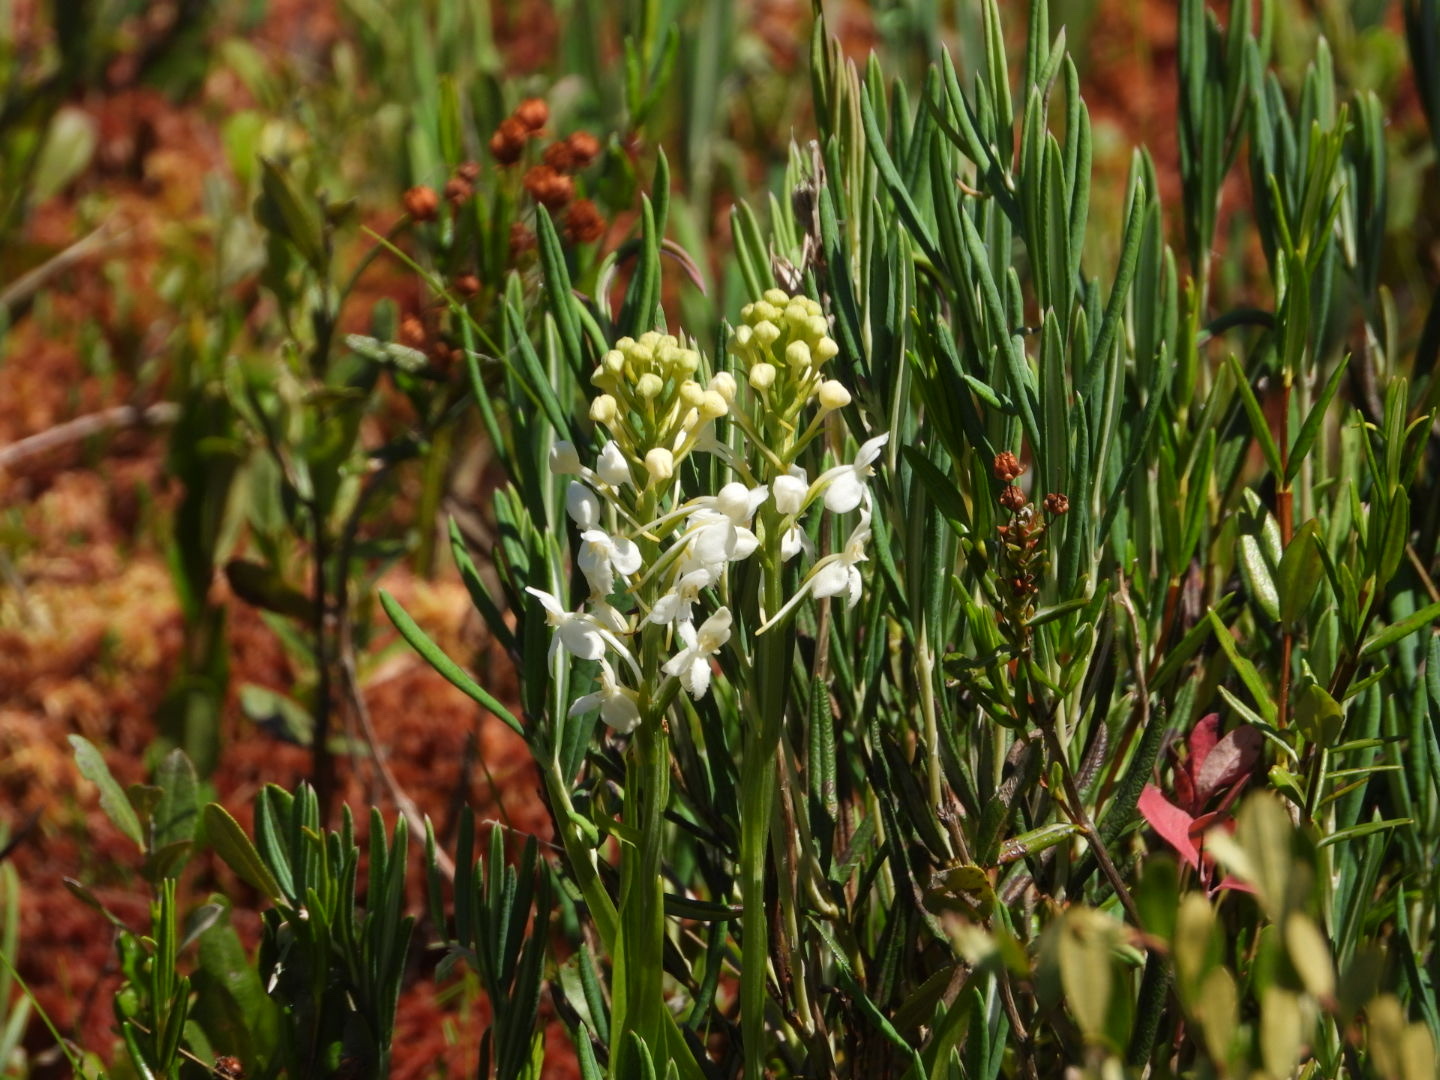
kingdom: Plantae
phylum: Tracheophyta
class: Liliopsida
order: Asparagales
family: Orchidaceae
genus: Platanthera
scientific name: Platanthera blephariglottis
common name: White fringed orchid
